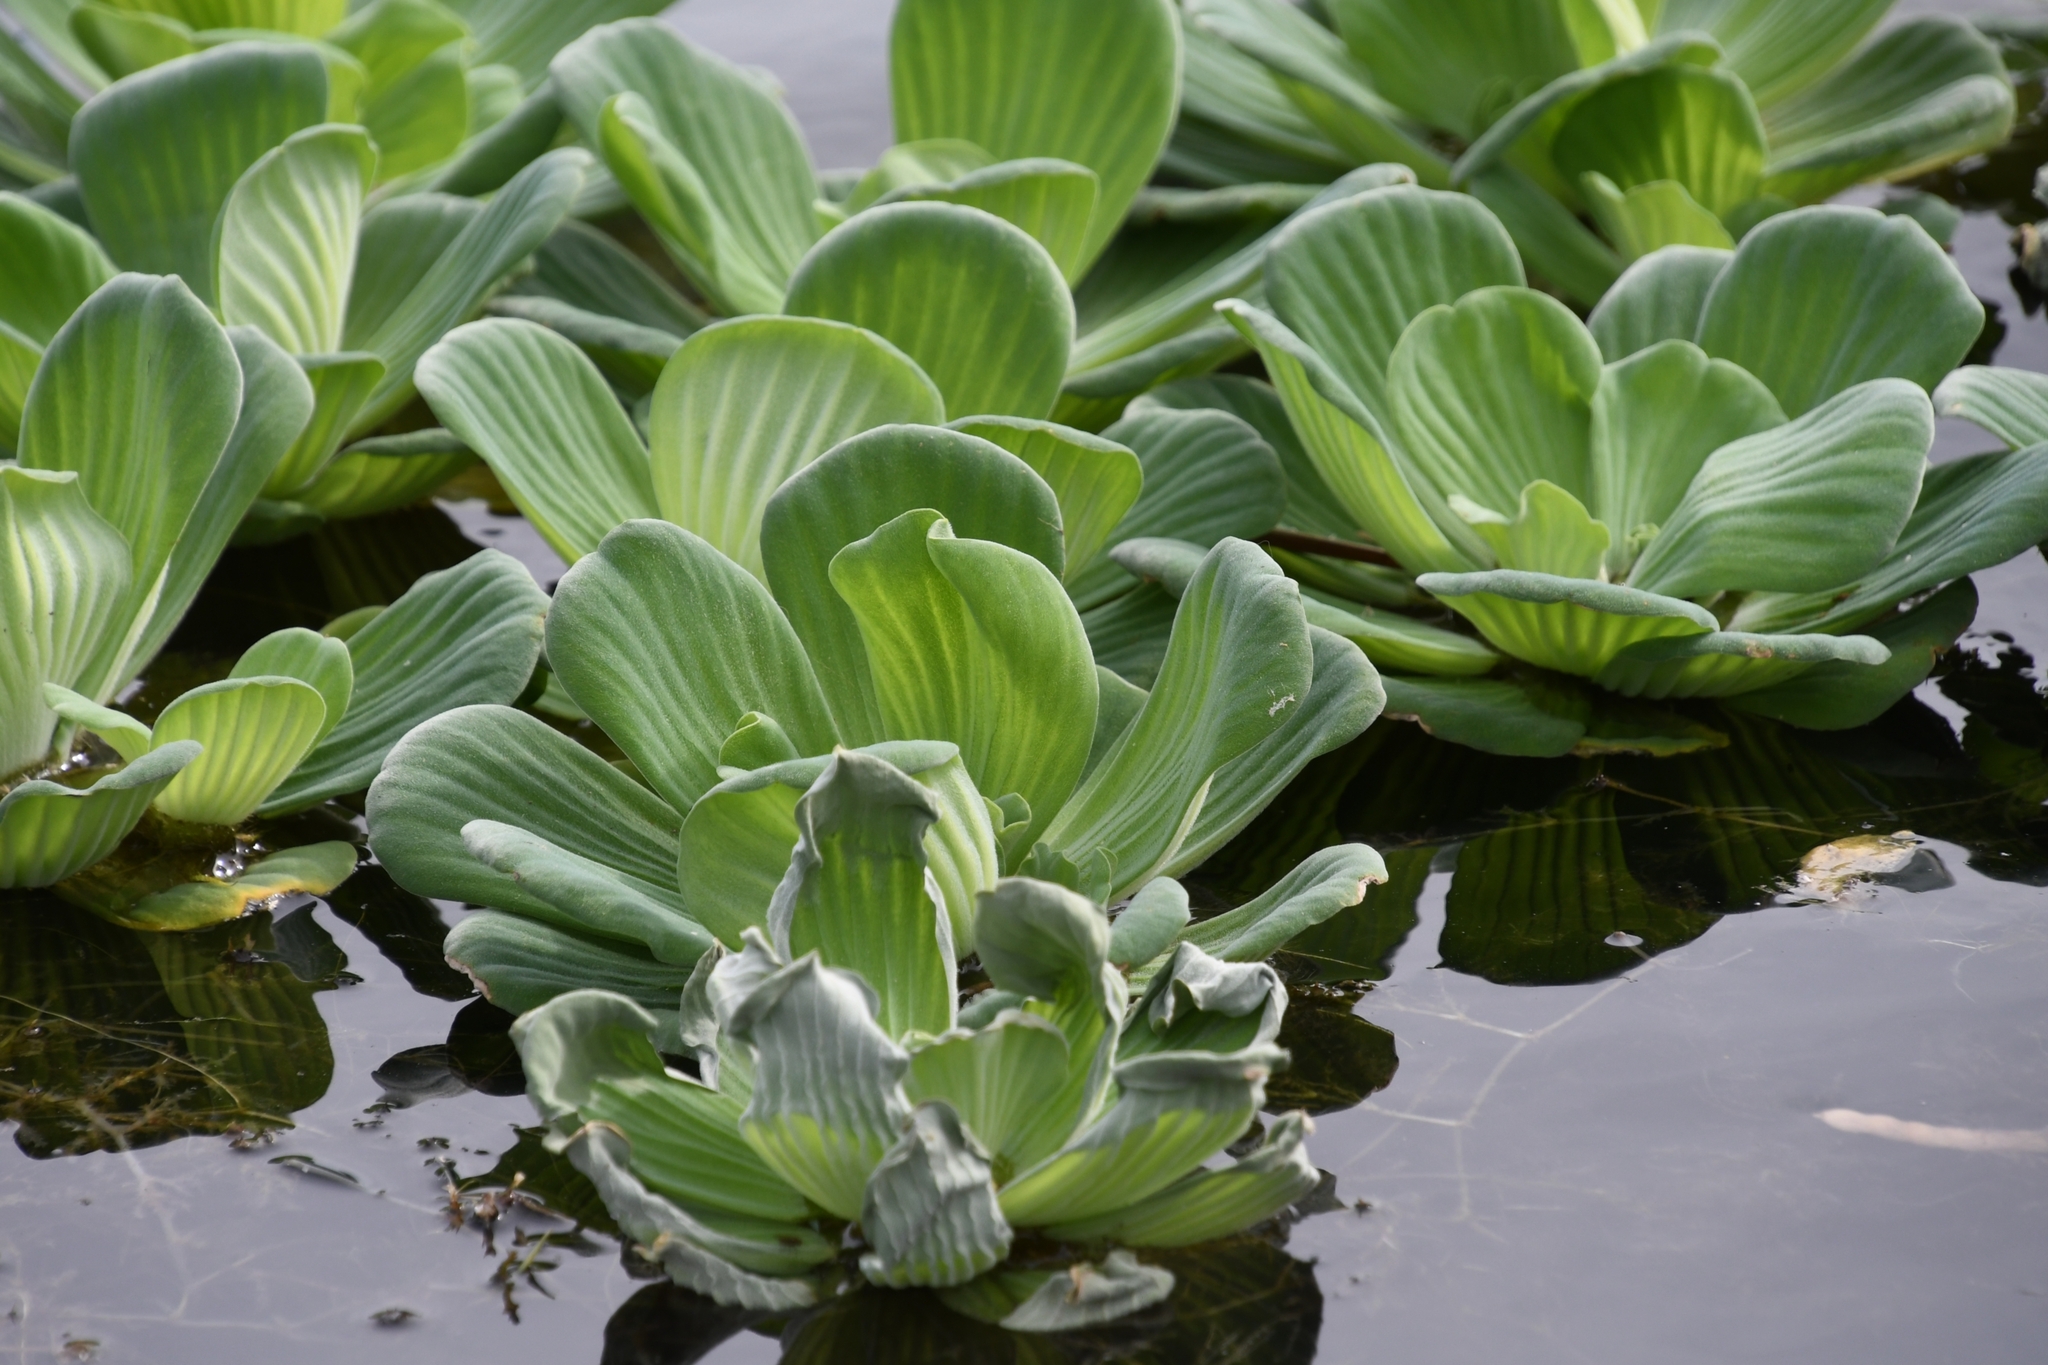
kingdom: Plantae
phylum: Tracheophyta
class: Liliopsida
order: Alismatales
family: Araceae
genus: Pistia
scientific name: Pistia stratiotes
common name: Water lettuce
